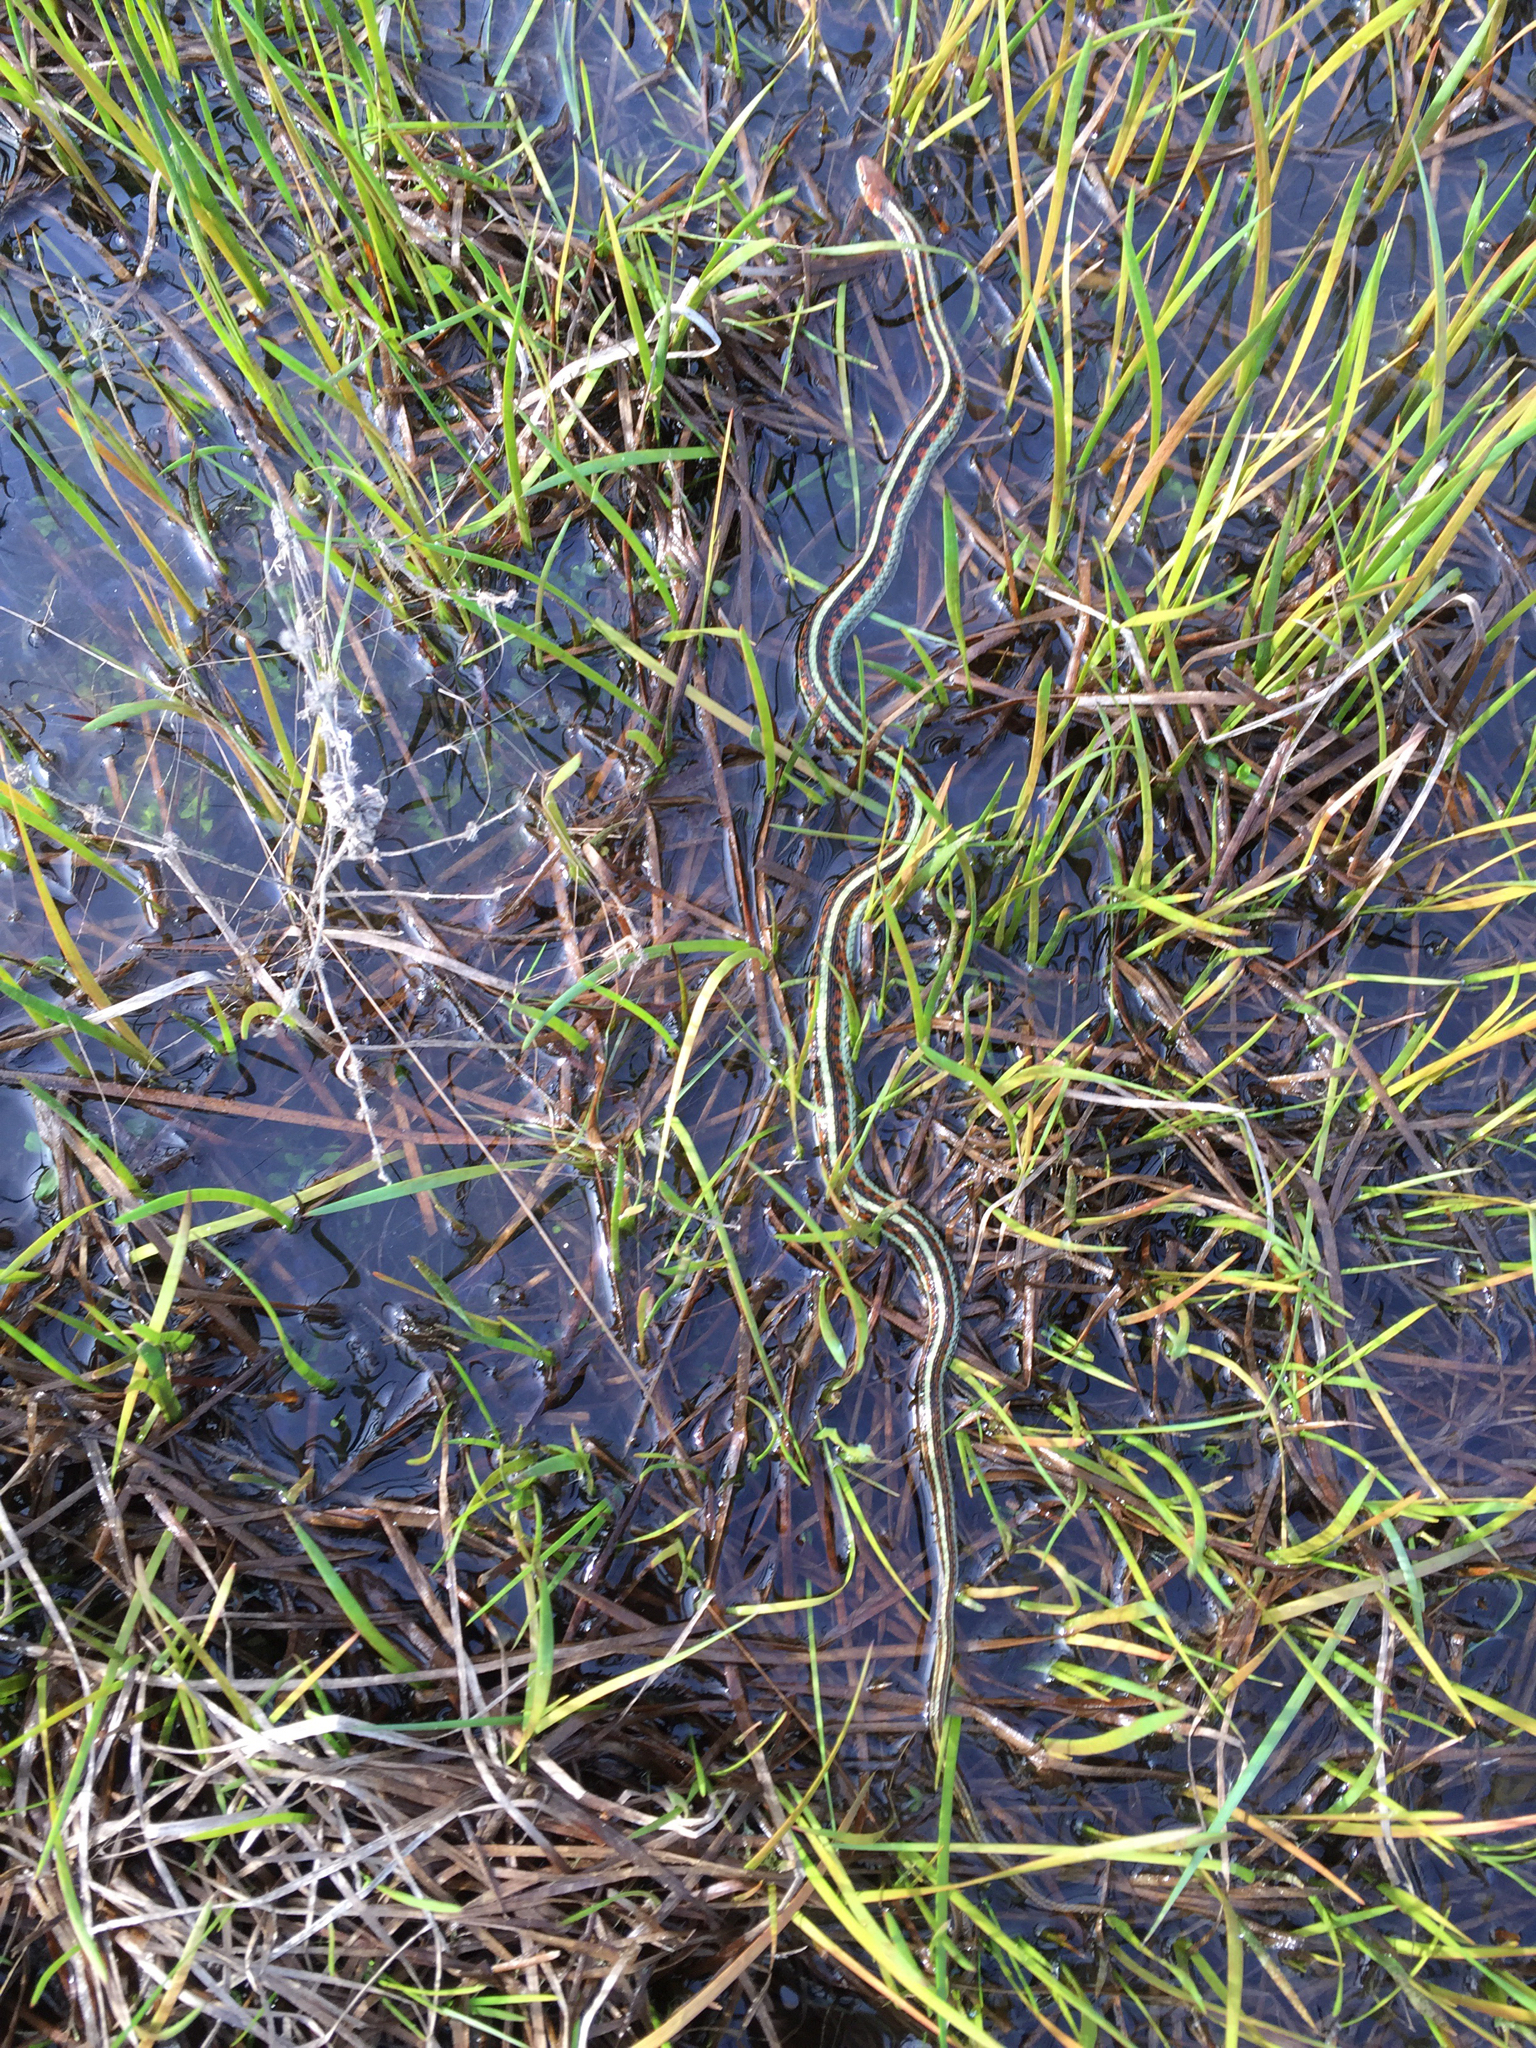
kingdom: Animalia
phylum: Chordata
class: Squamata
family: Colubridae
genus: Thamnophis
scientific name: Thamnophis sirtalis
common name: Common garter snake
